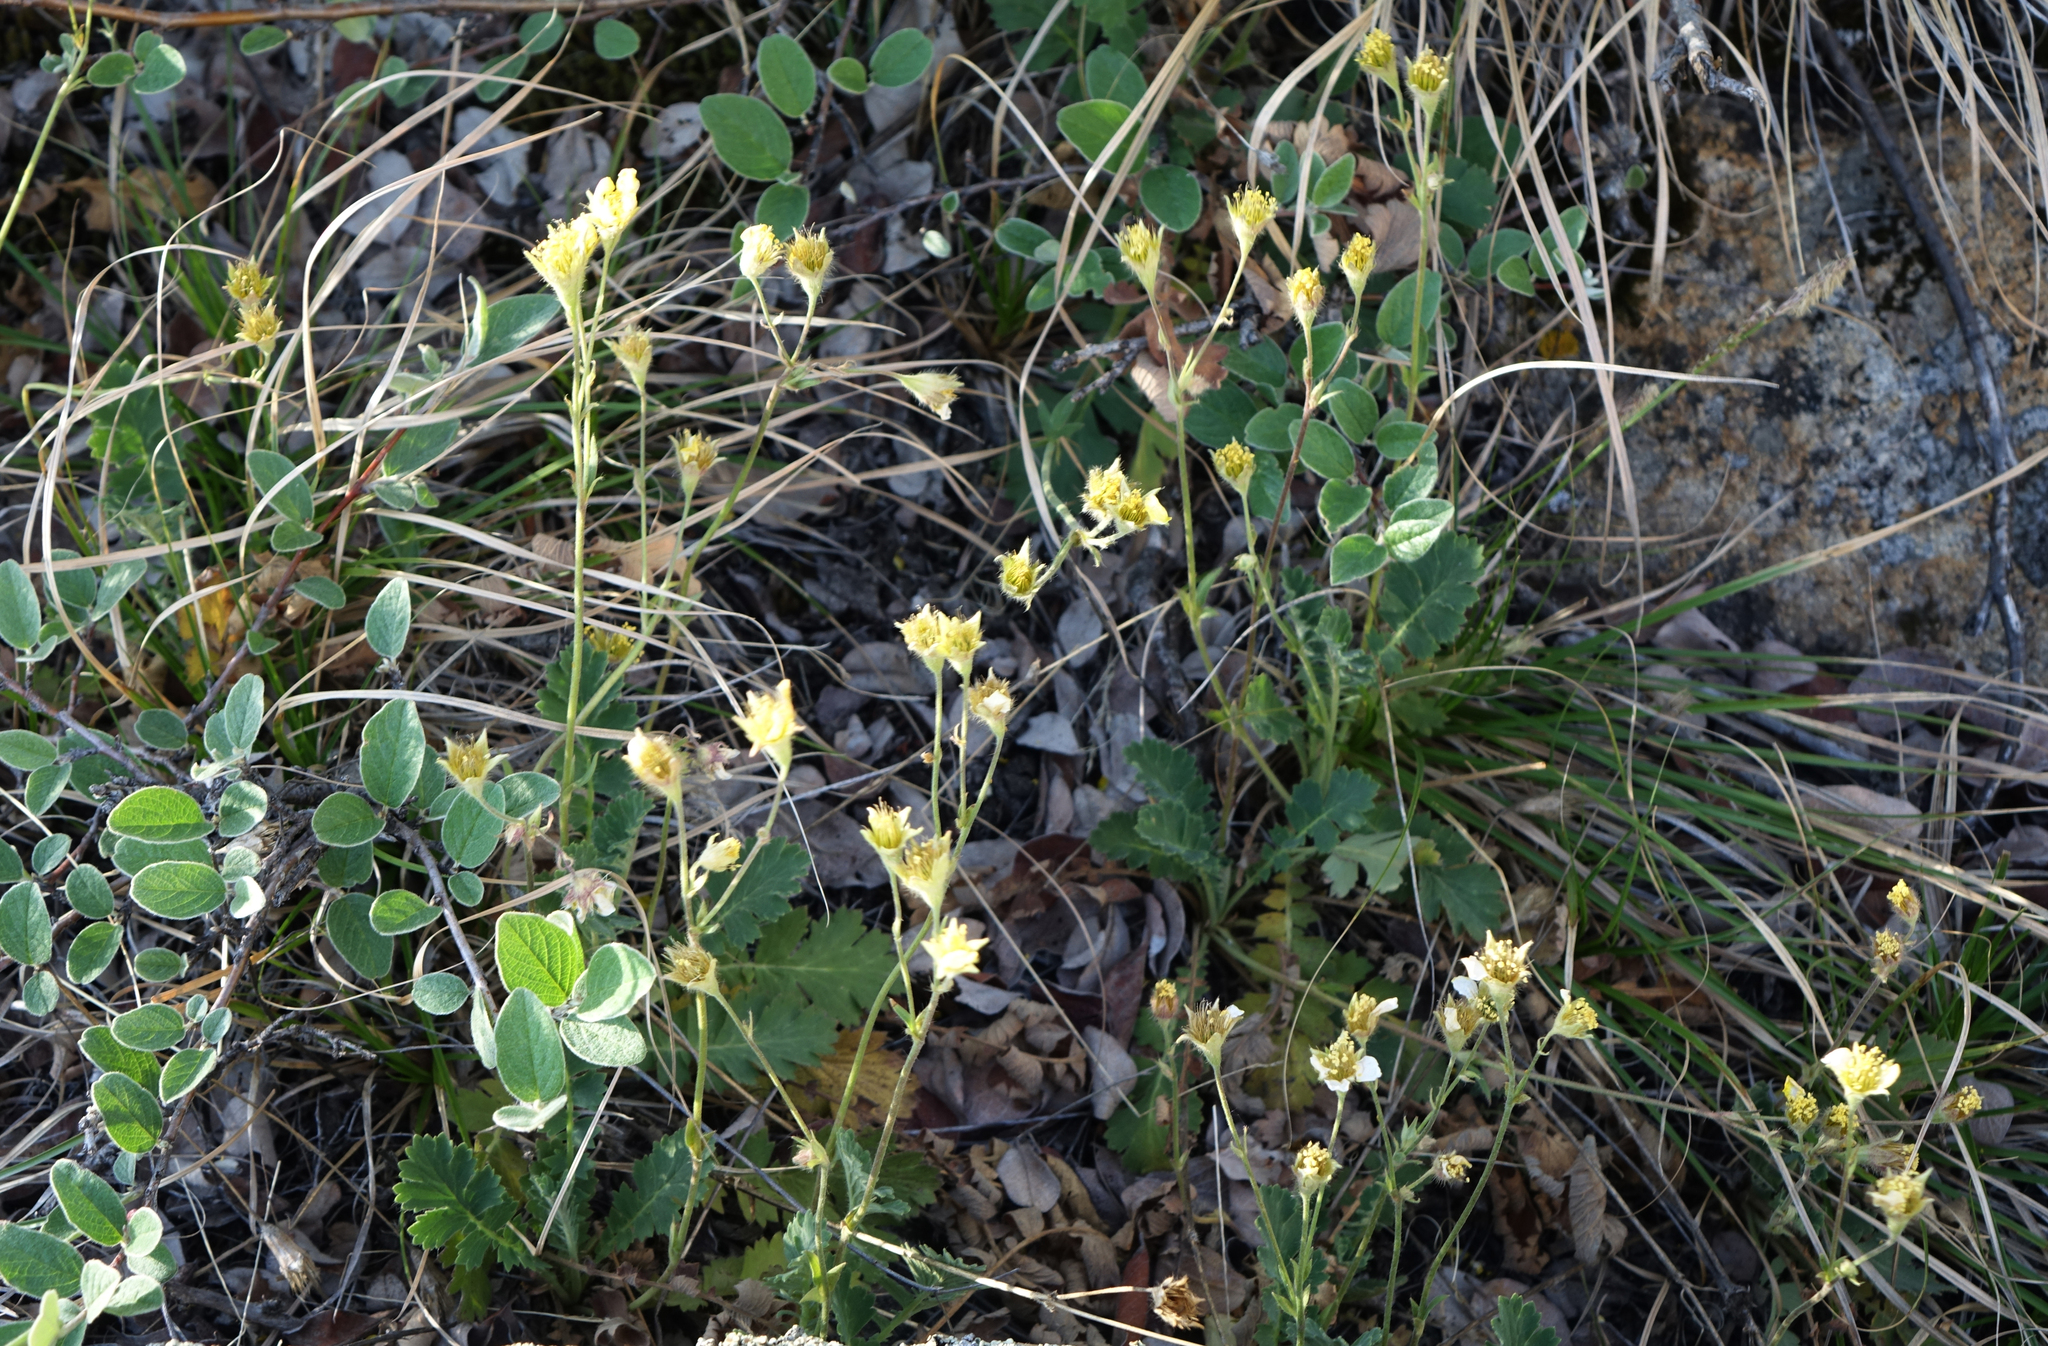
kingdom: Plantae
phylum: Tracheophyta
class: Magnoliopsida
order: Rosales
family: Rosaceae
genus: Geum
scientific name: Geum geoides
